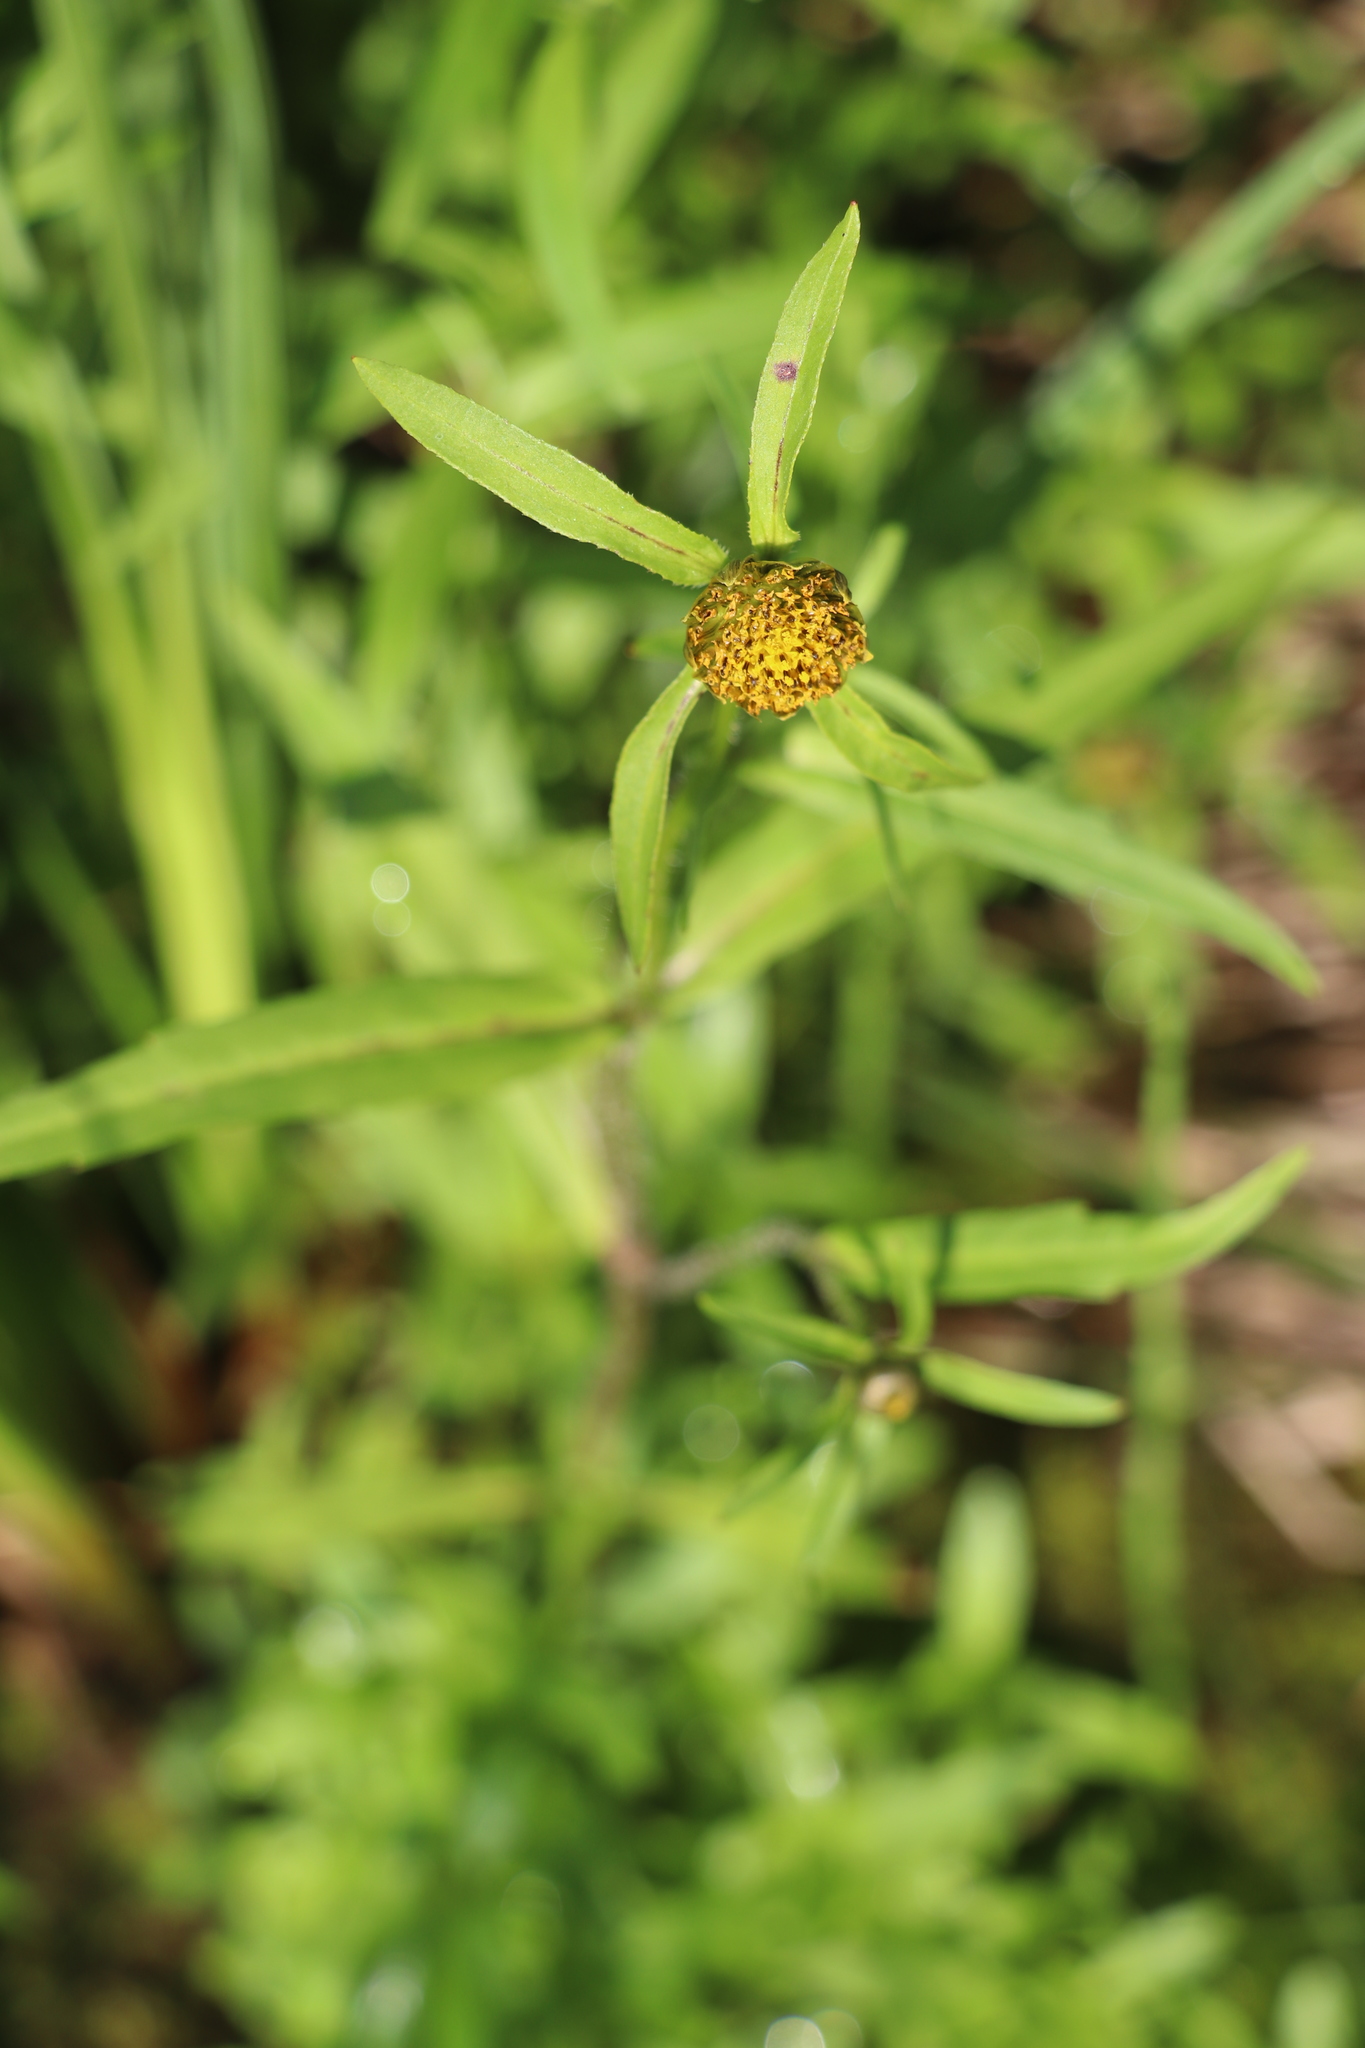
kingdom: Plantae
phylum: Tracheophyta
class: Magnoliopsida
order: Asterales
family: Asteraceae
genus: Bidens
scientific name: Bidens cernua
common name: Nodding bur-marigold
